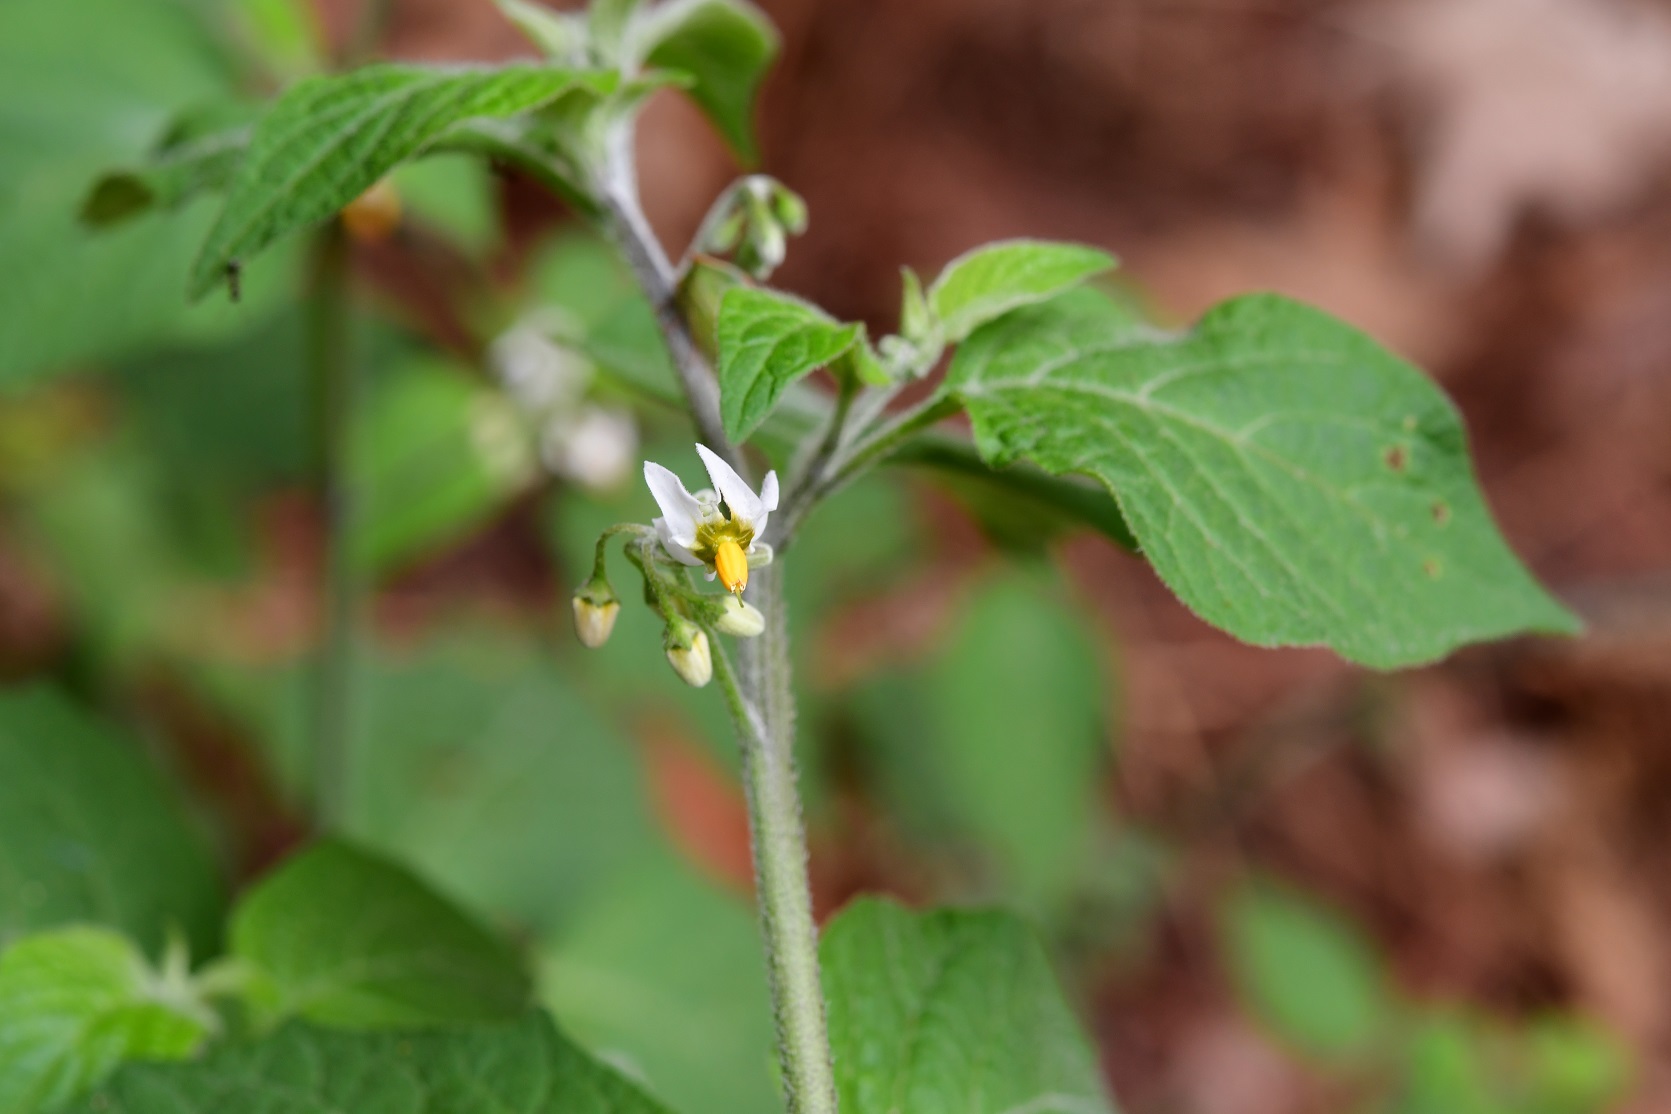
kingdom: Plantae
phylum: Tracheophyta
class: Magnoliopsida
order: Solanales
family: Solanaceae
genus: Solanum
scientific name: Solanum douglasii
